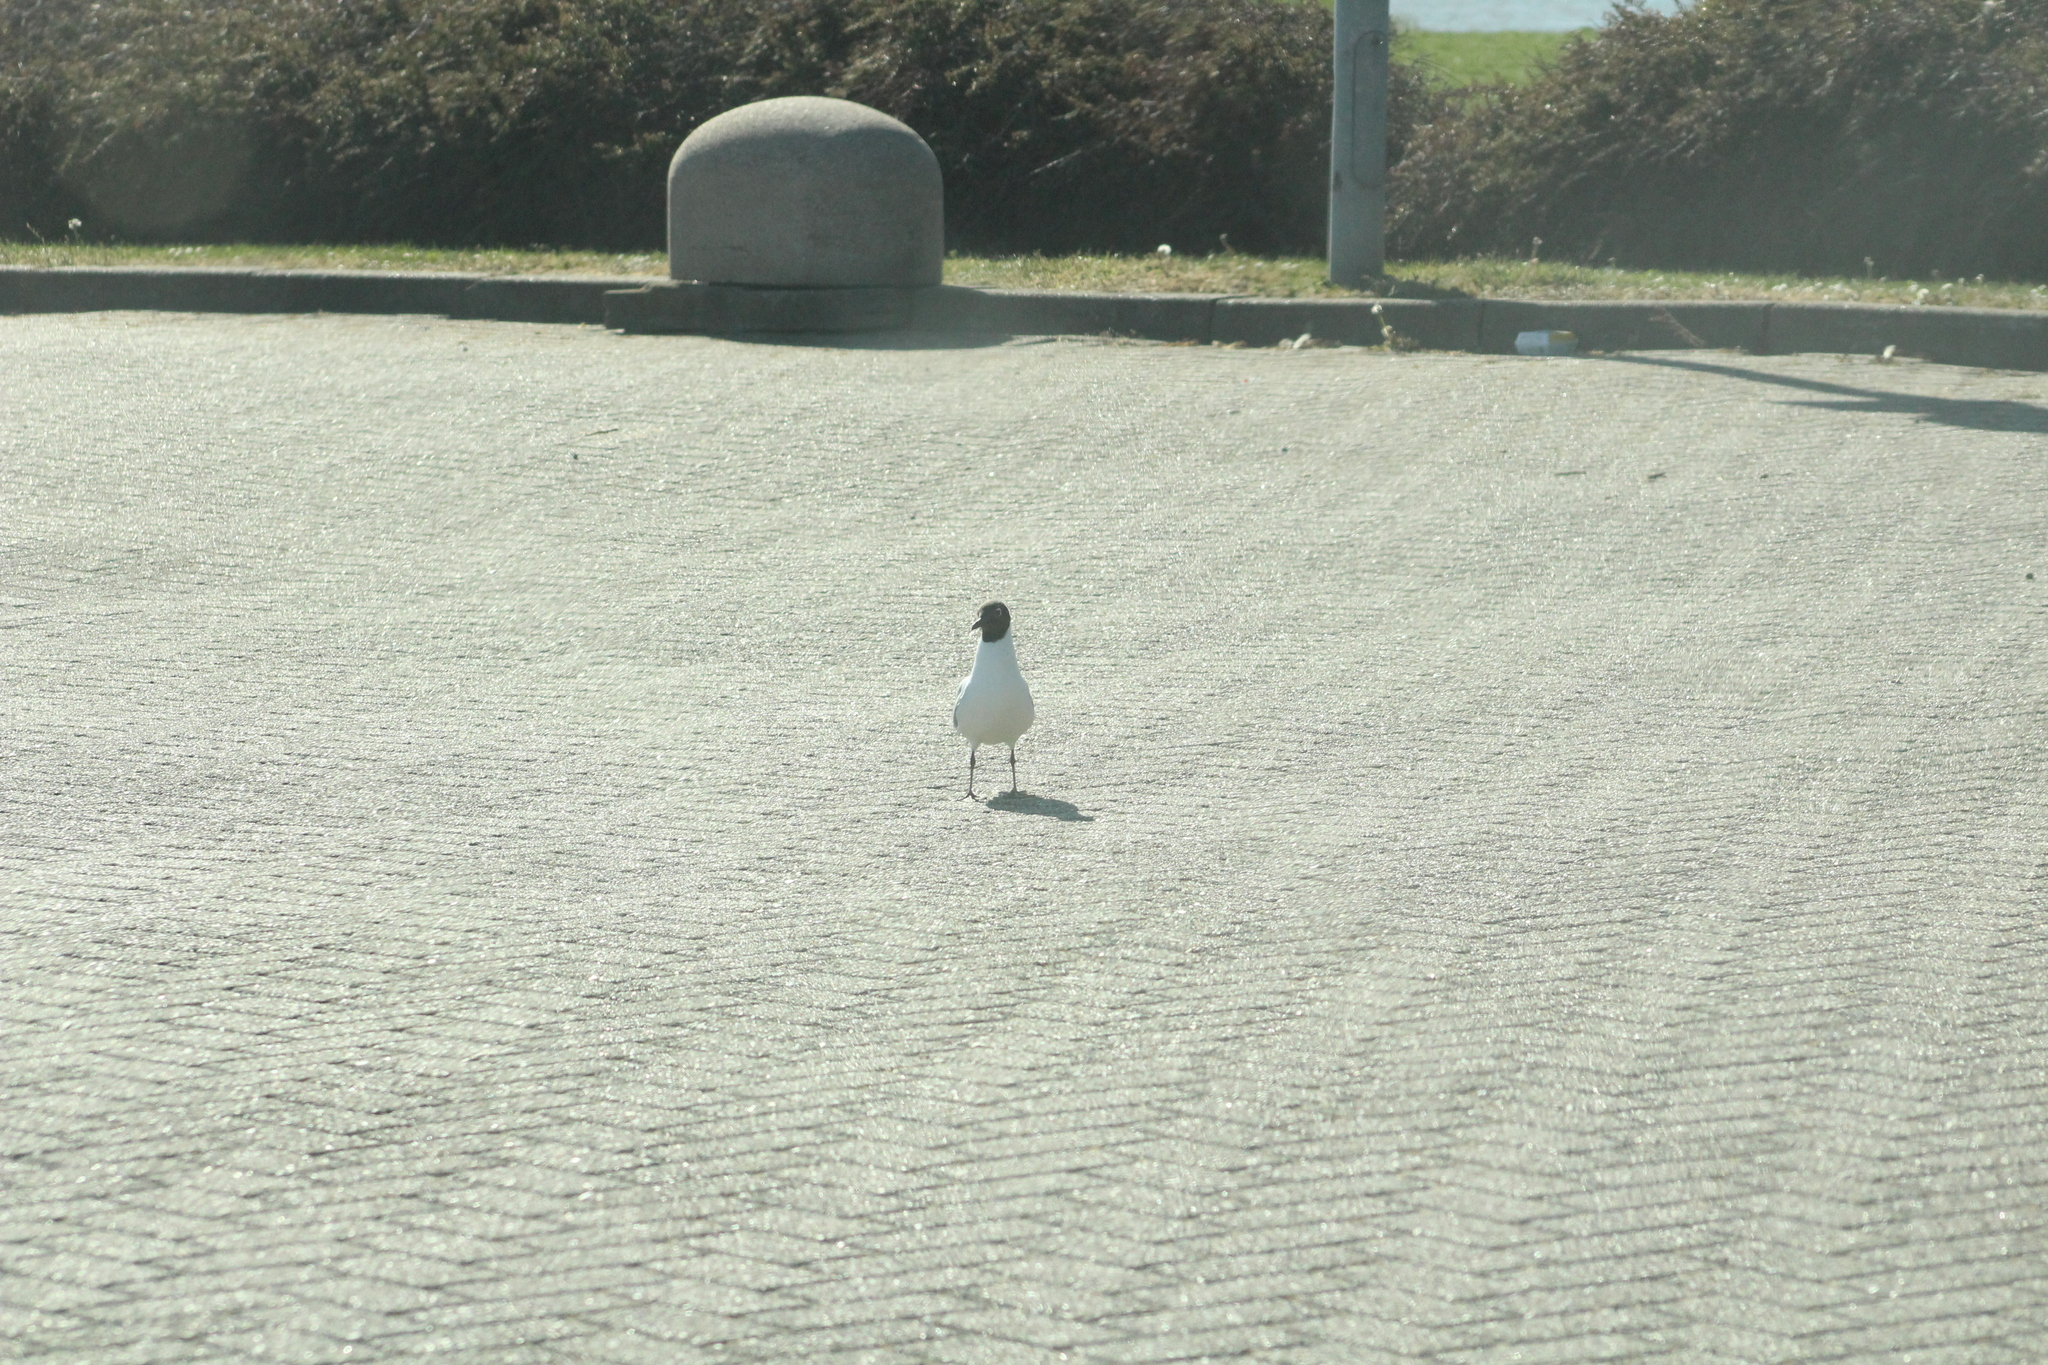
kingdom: Animalia
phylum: Chordata
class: Aves
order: Charadriiformes
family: Laridae
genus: Chroicocephalus
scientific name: Chroicocephalus ridibundus
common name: Black-headed gull
